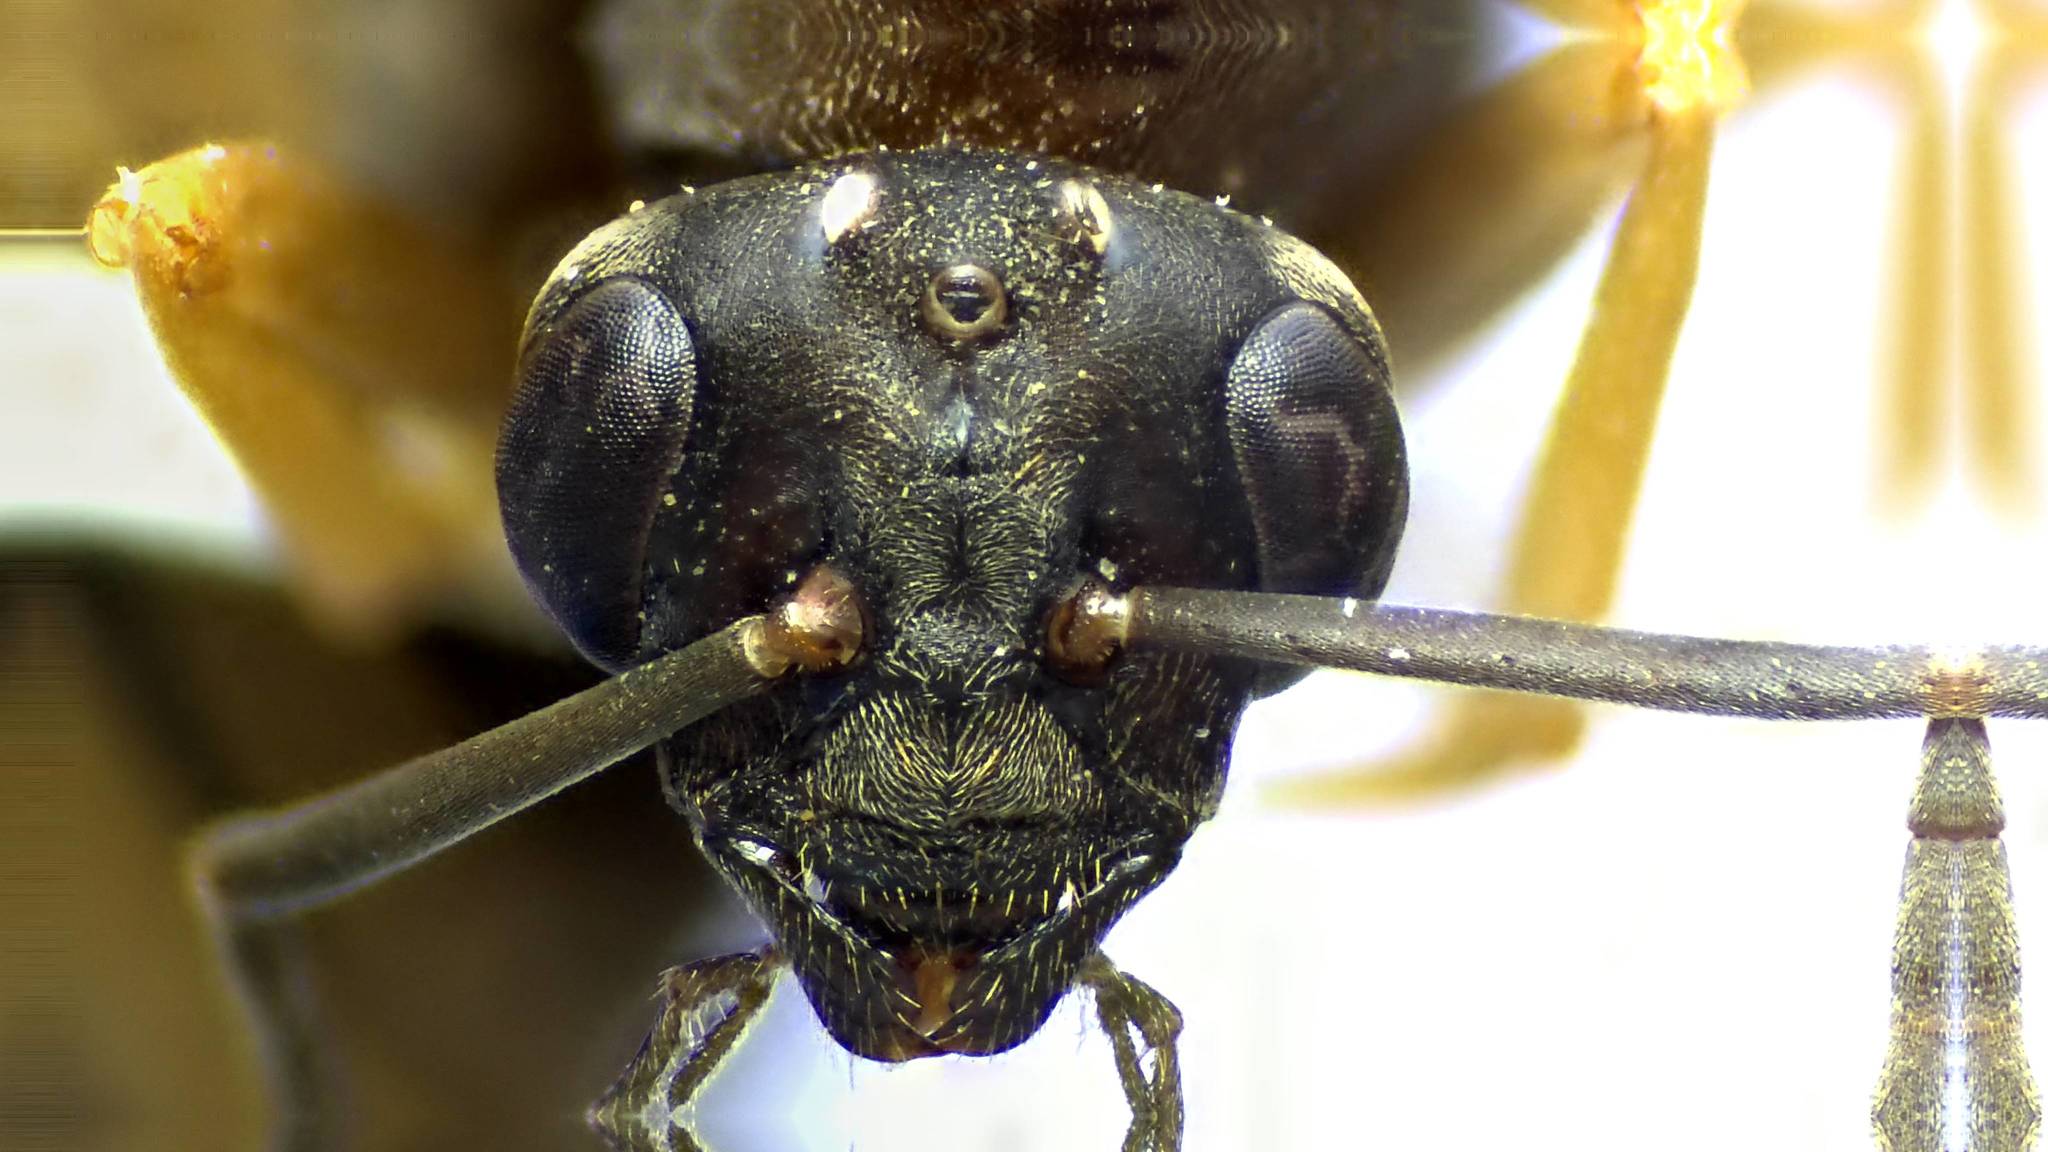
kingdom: Animalia
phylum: Arthropoda
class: Insecta
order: Hymenoptera
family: Formicidae
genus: Formica
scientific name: Formica subsericea
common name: Silky field ant
